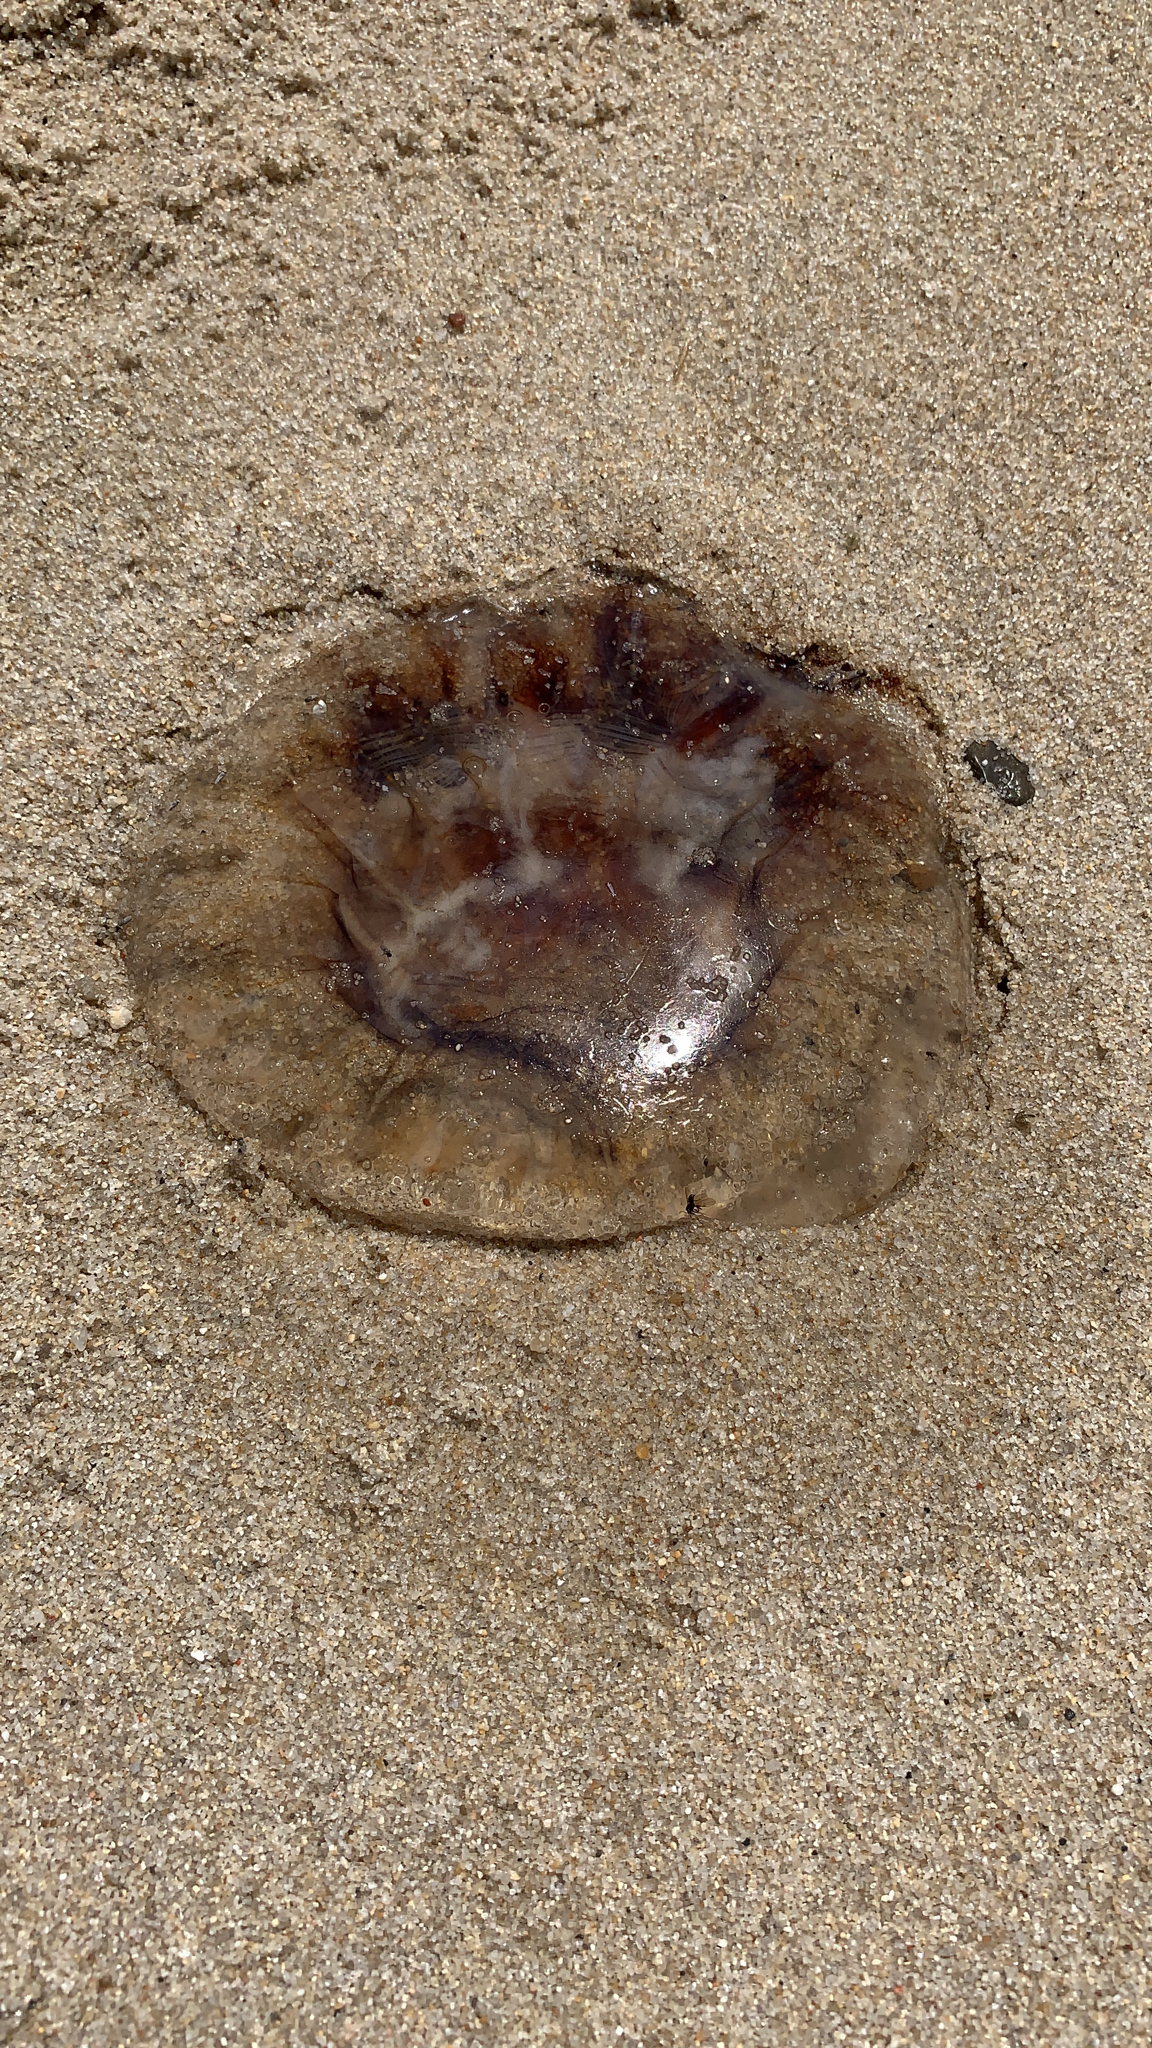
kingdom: Animalia
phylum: Cnidaria
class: Scyphozoa
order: Semaeostomeae
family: Cyaneidae
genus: Cyanea
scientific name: Cyanea versicolor
